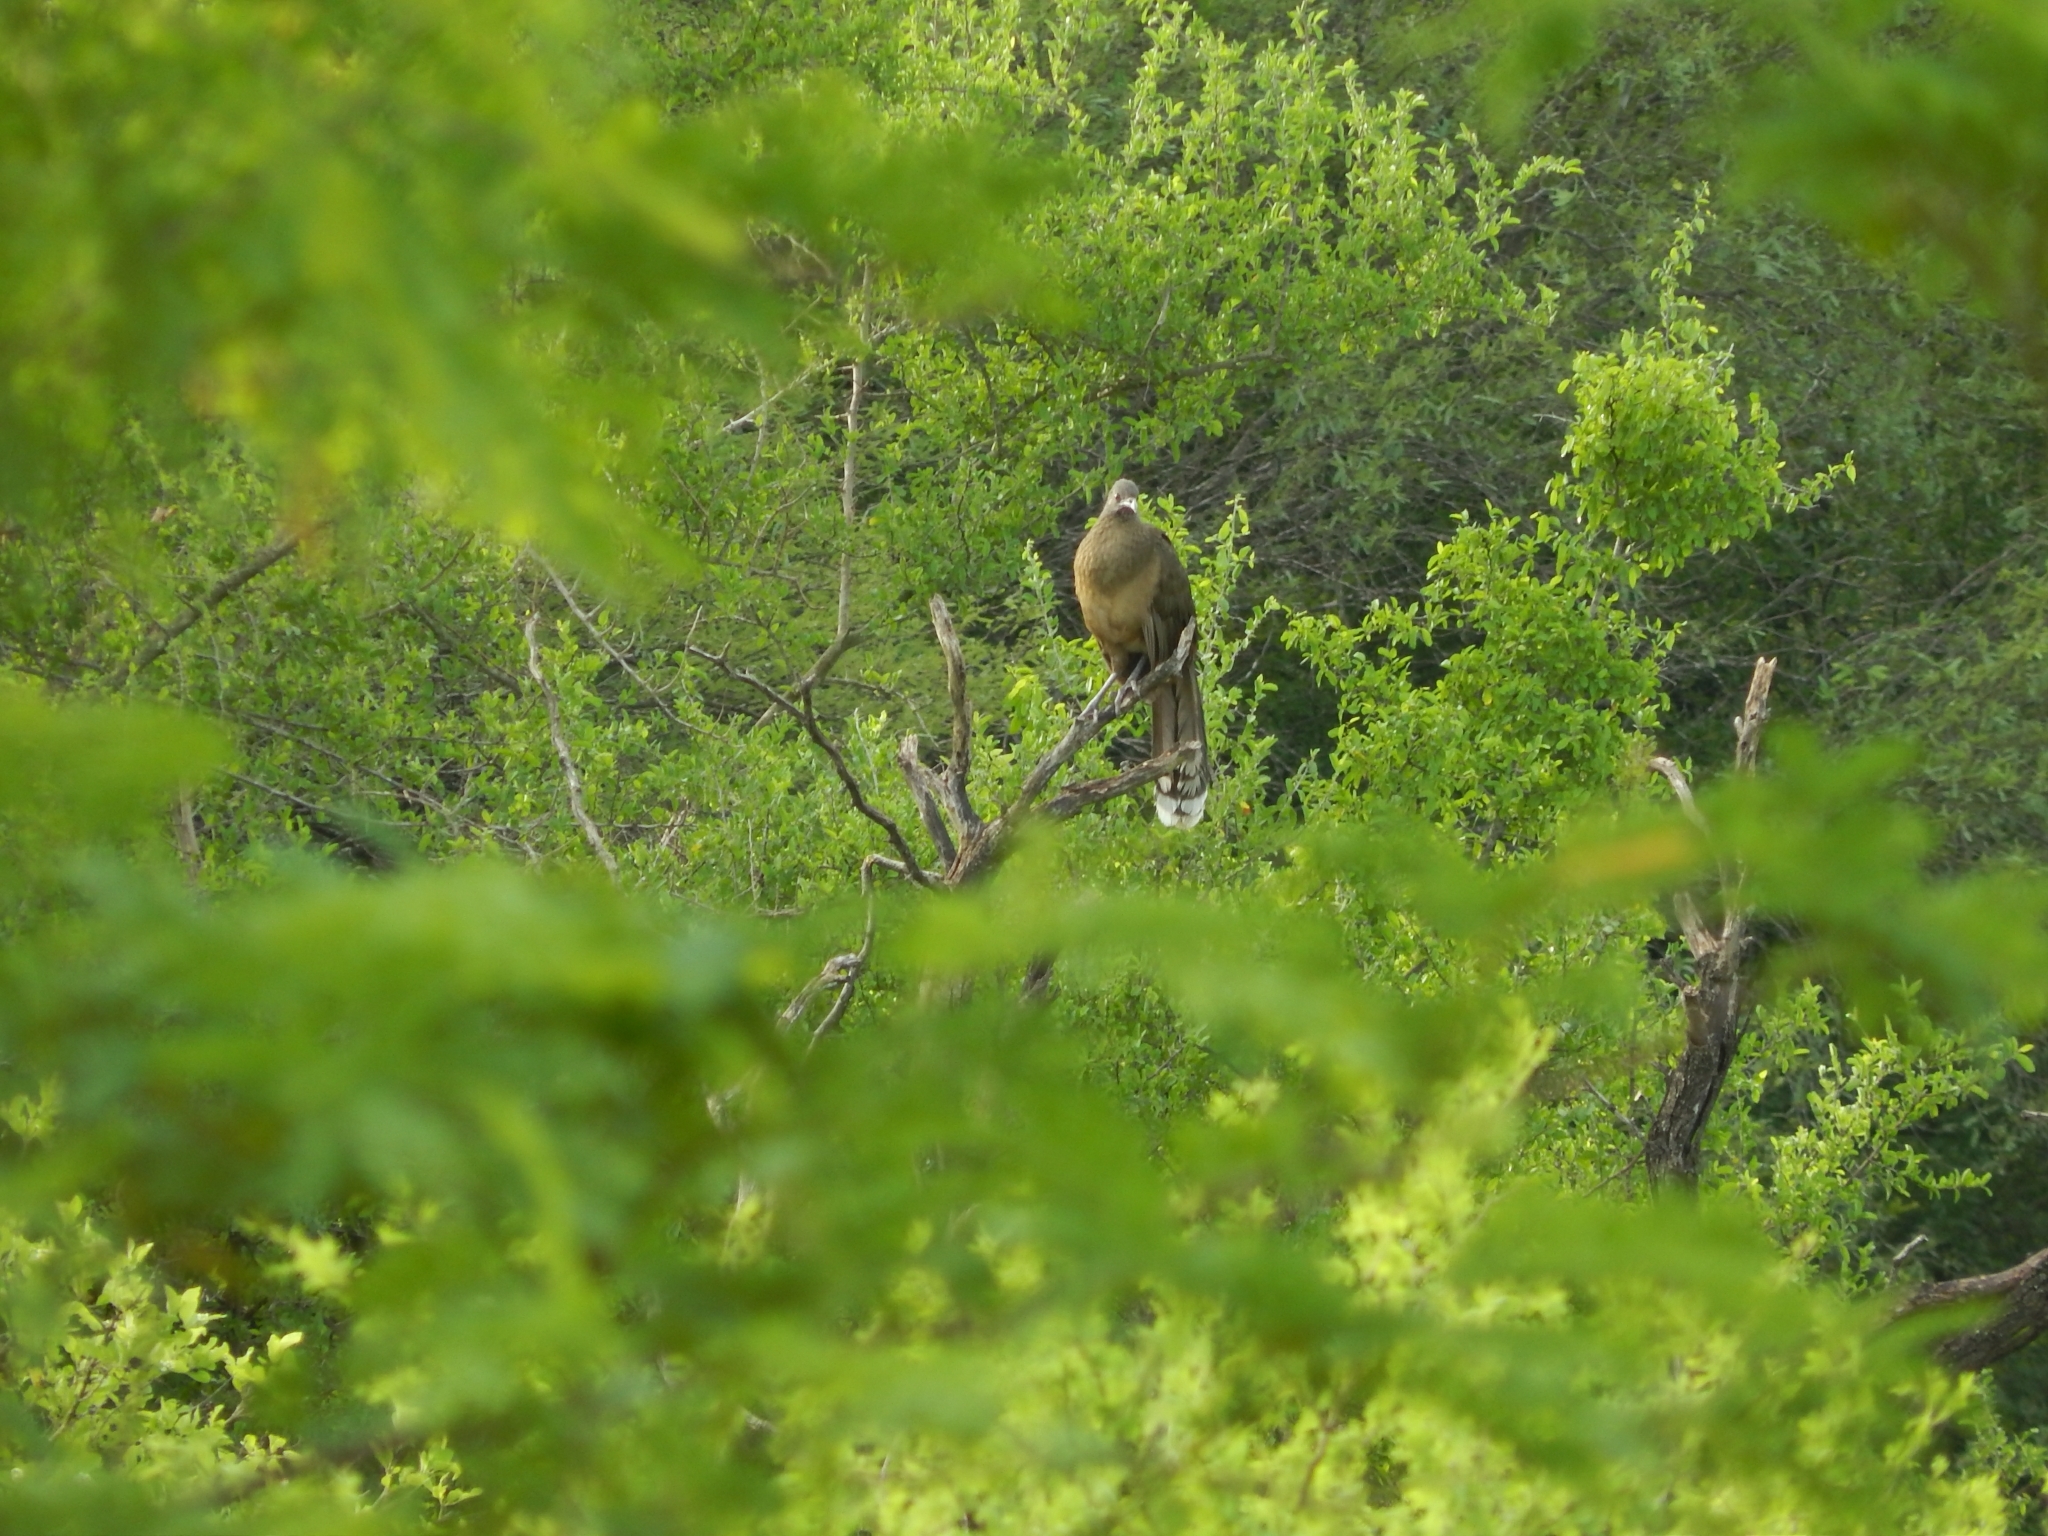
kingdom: Animalia
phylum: Chordata
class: Aves
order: Galliformes
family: Cracidae
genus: Ortalis
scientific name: Ortalis vetula
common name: Plain chachalaca
